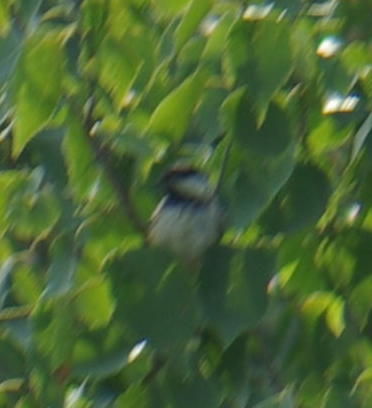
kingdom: Animalia
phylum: Chordata
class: Aves
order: Passeriformes
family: Paridae
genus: Poecile
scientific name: Poecile atricapillus
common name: Black-capped chickadee
